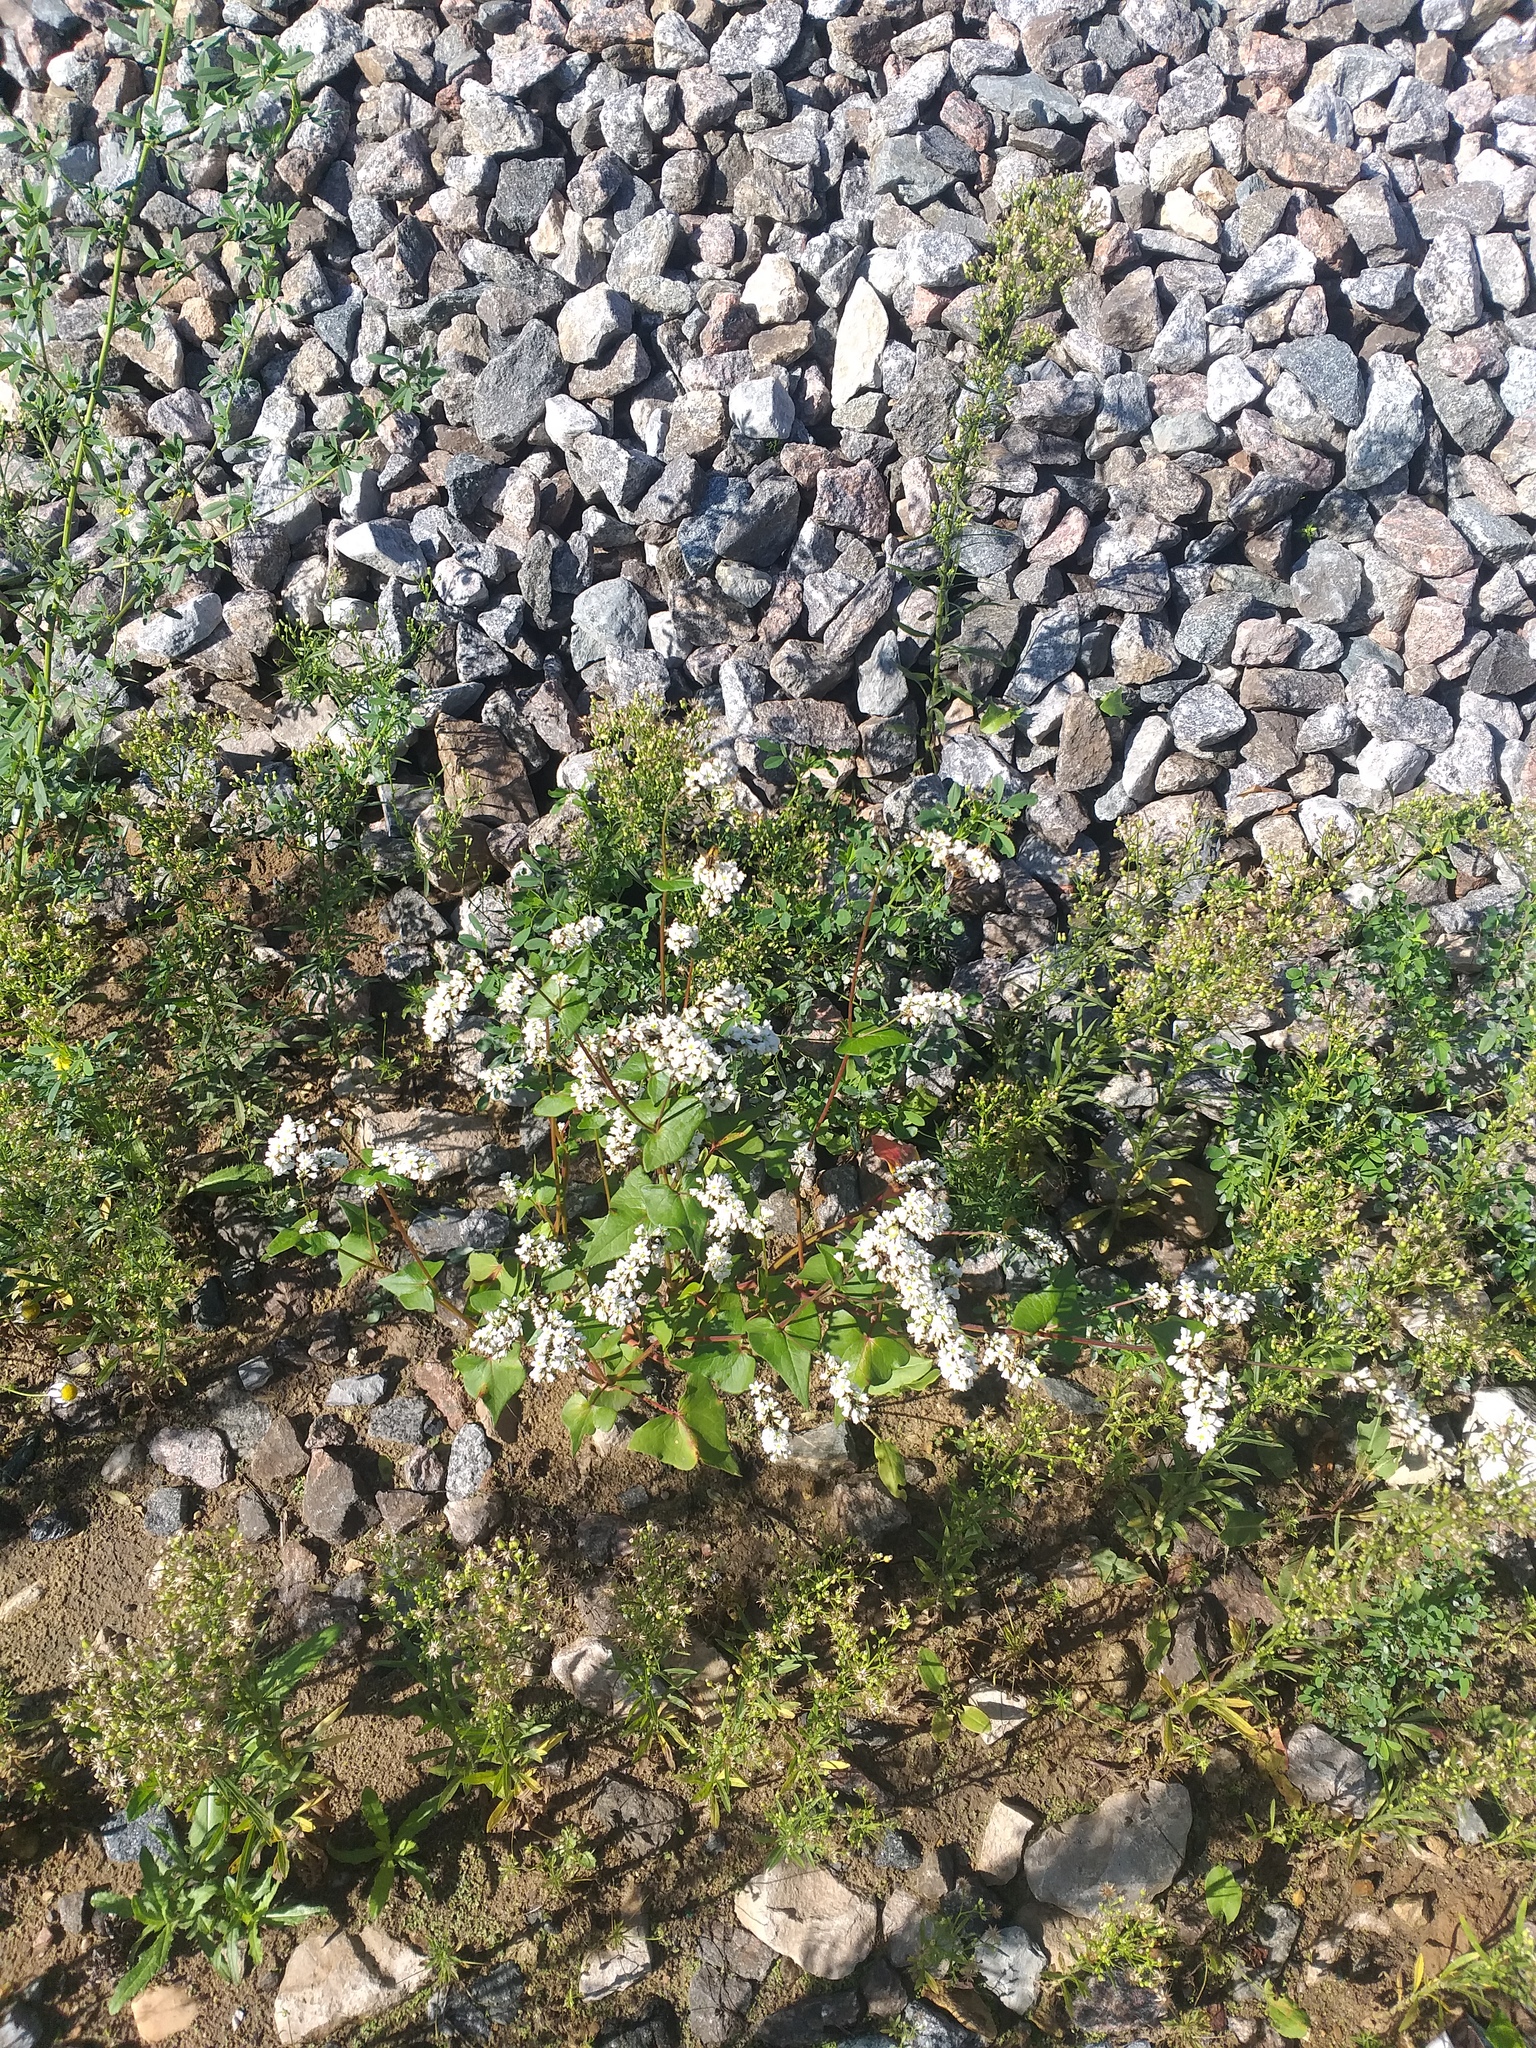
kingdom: Plantae
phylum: Tracheophyta
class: Magnoliopsida
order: Caryophyllales
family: Polygonaceae
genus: Fagopyrum
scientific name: Fagopyrum esculentum
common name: Buckwheat
